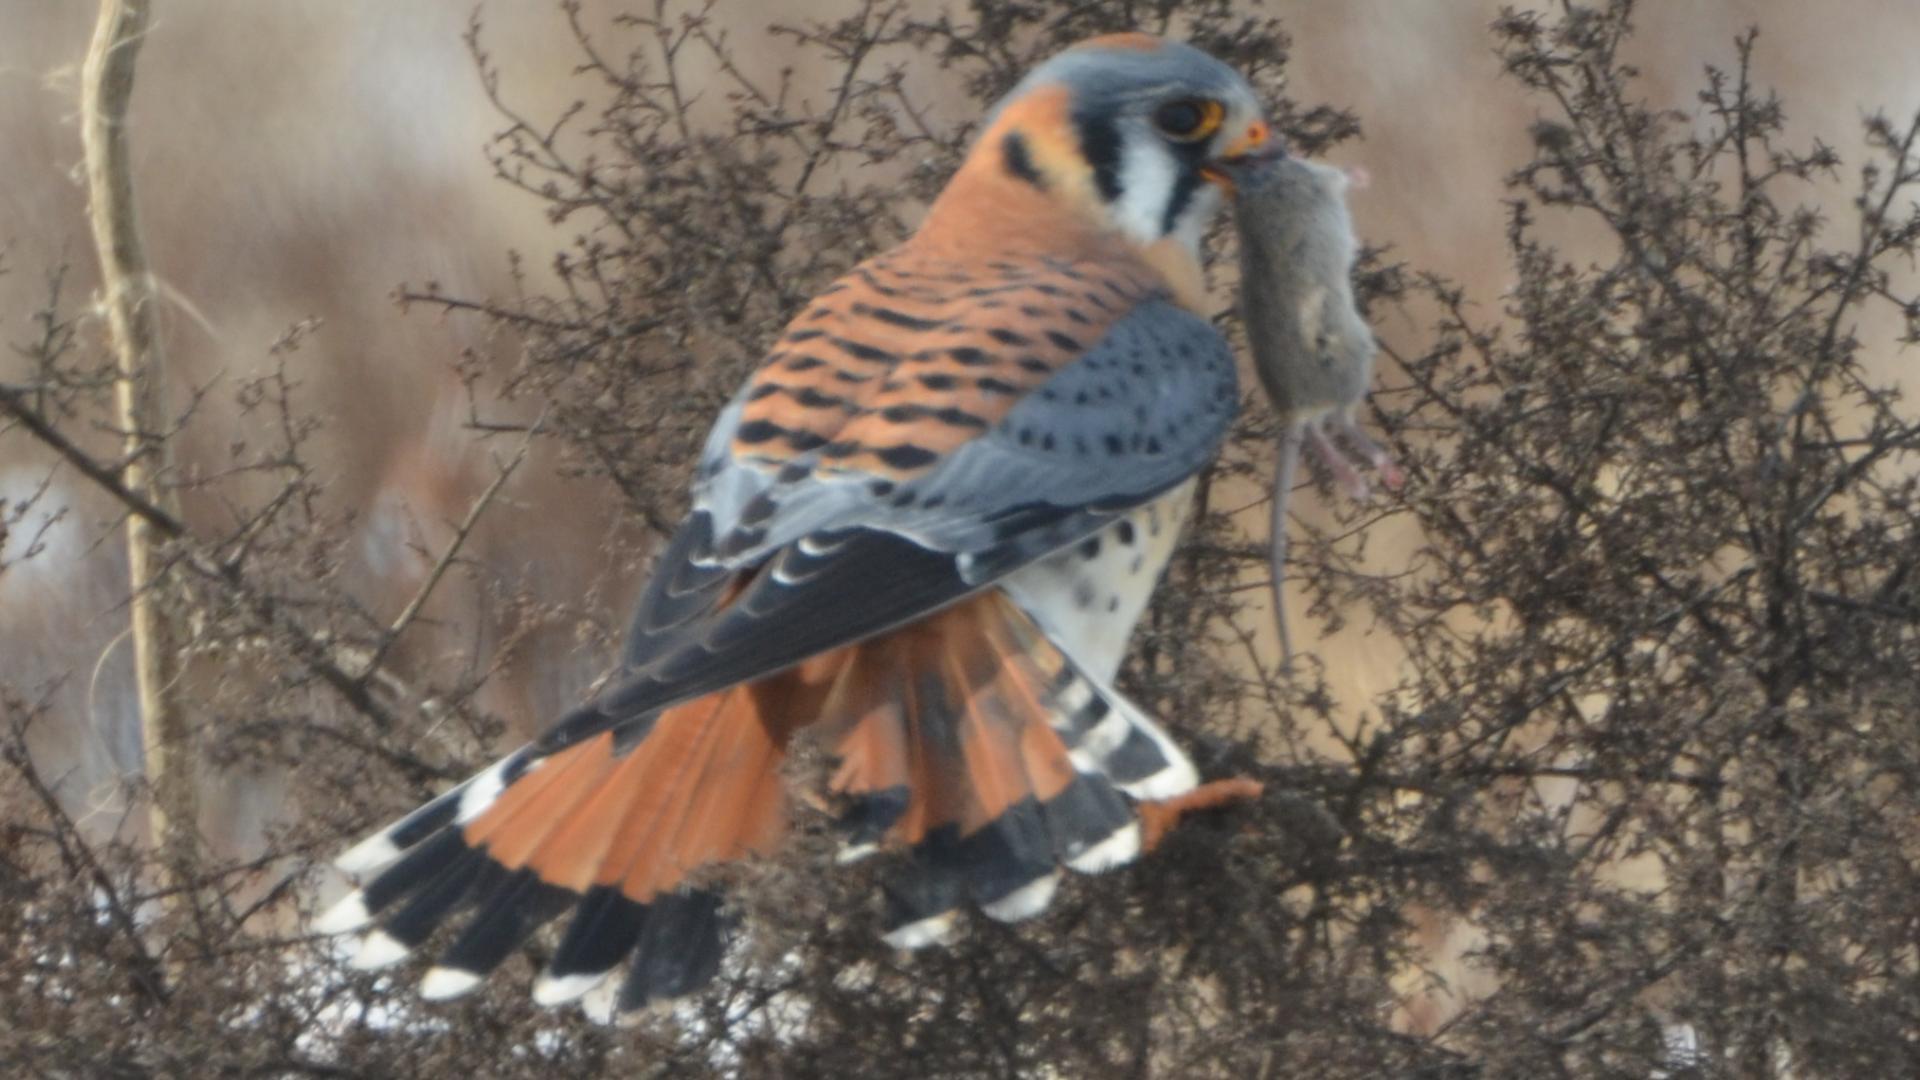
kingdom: Animalia
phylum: Chordata
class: Aves
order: Falconiformes
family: Falconidae
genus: Falco
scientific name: Falco sparverius
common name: American kestrel
